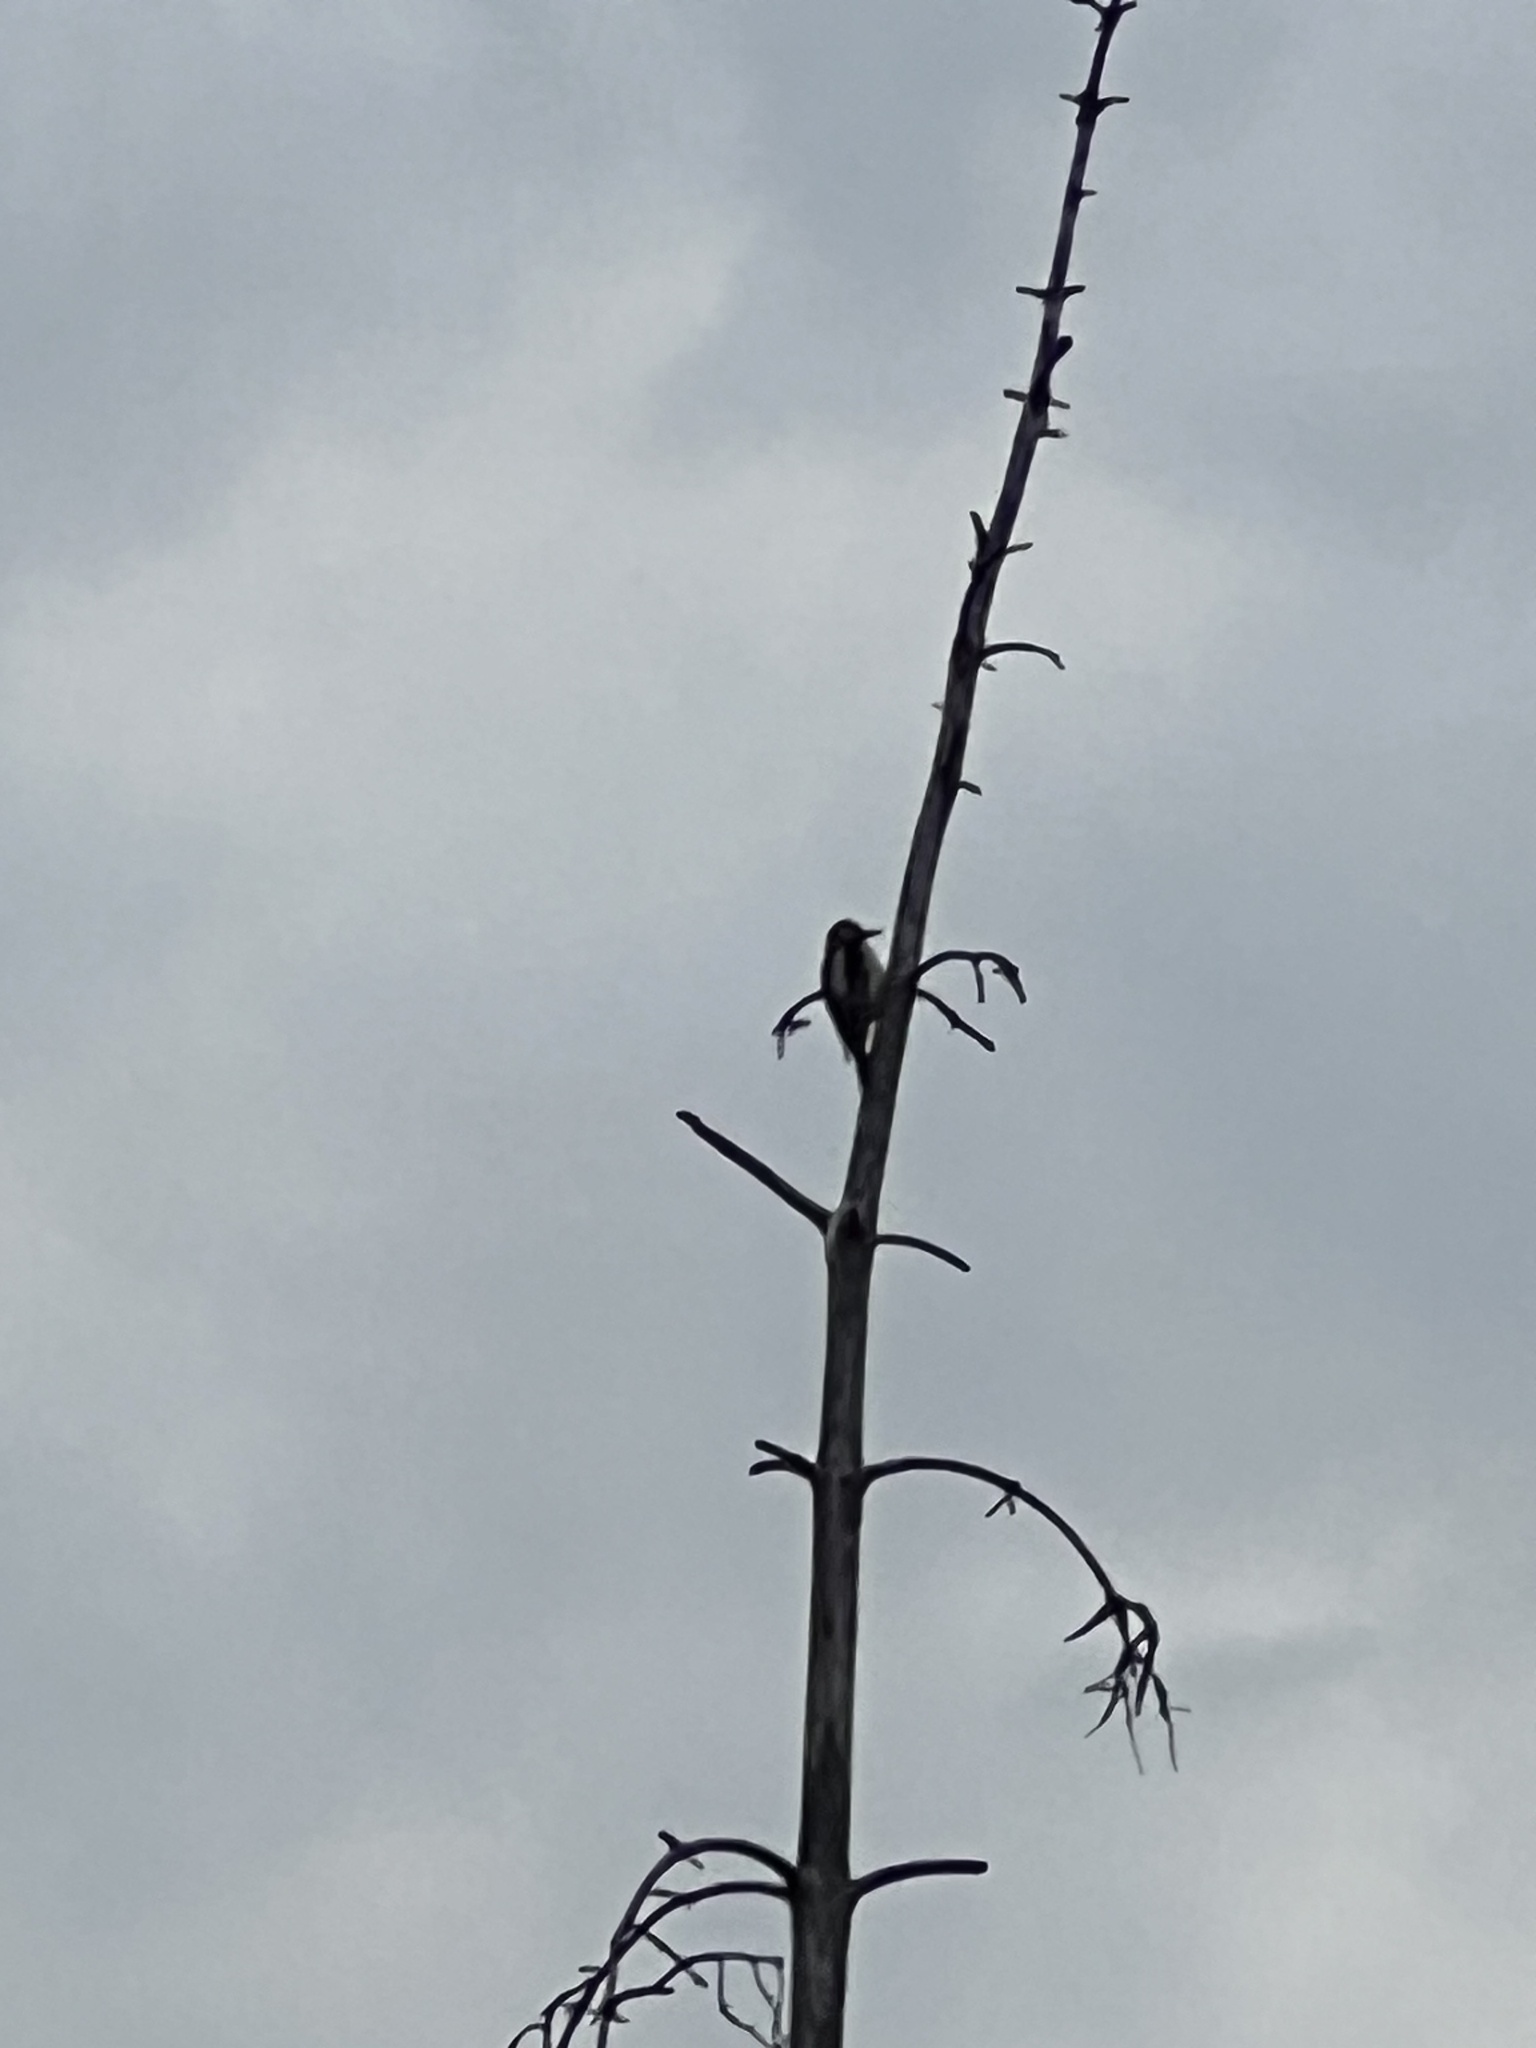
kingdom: Animalia
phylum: Chordata
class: Aves
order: Piciformes
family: Picidae
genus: Dendrocopos
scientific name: Dendrocopos major
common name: Great spotted woodpecker
